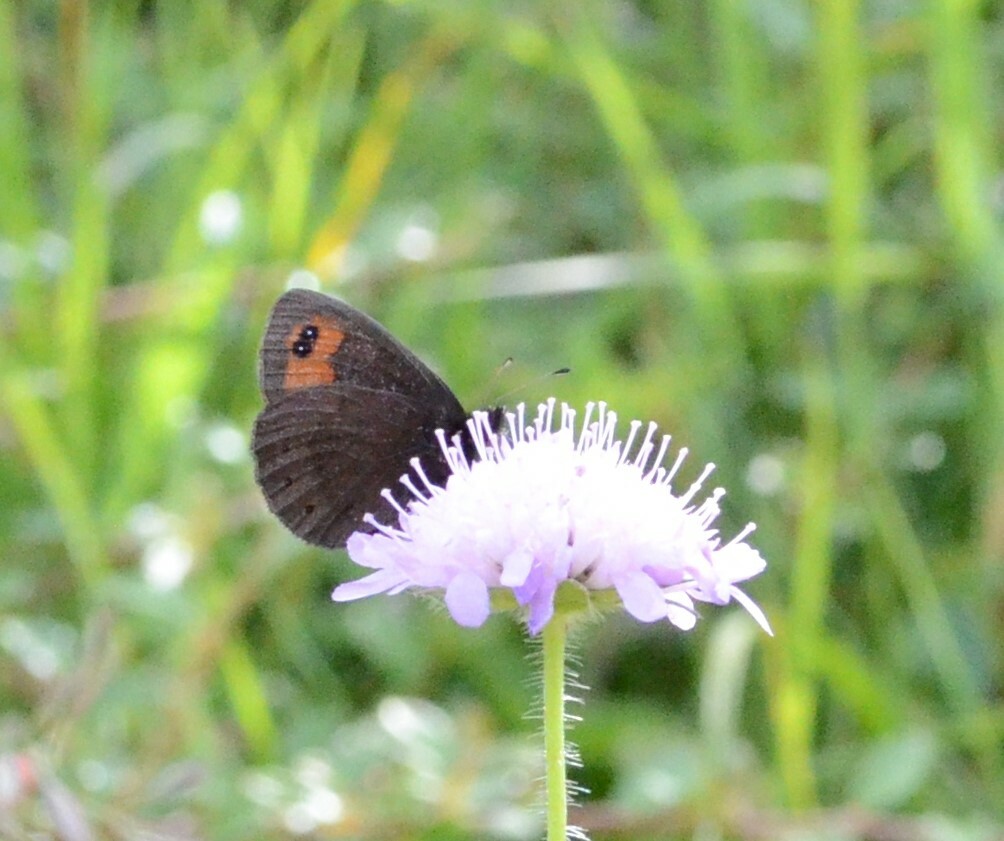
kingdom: Animalia
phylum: Arthropoda
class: Insecta
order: Lepidoptera
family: Nymphalidae
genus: Erebia
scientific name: Erebia meolans
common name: Piedmont ringlet
